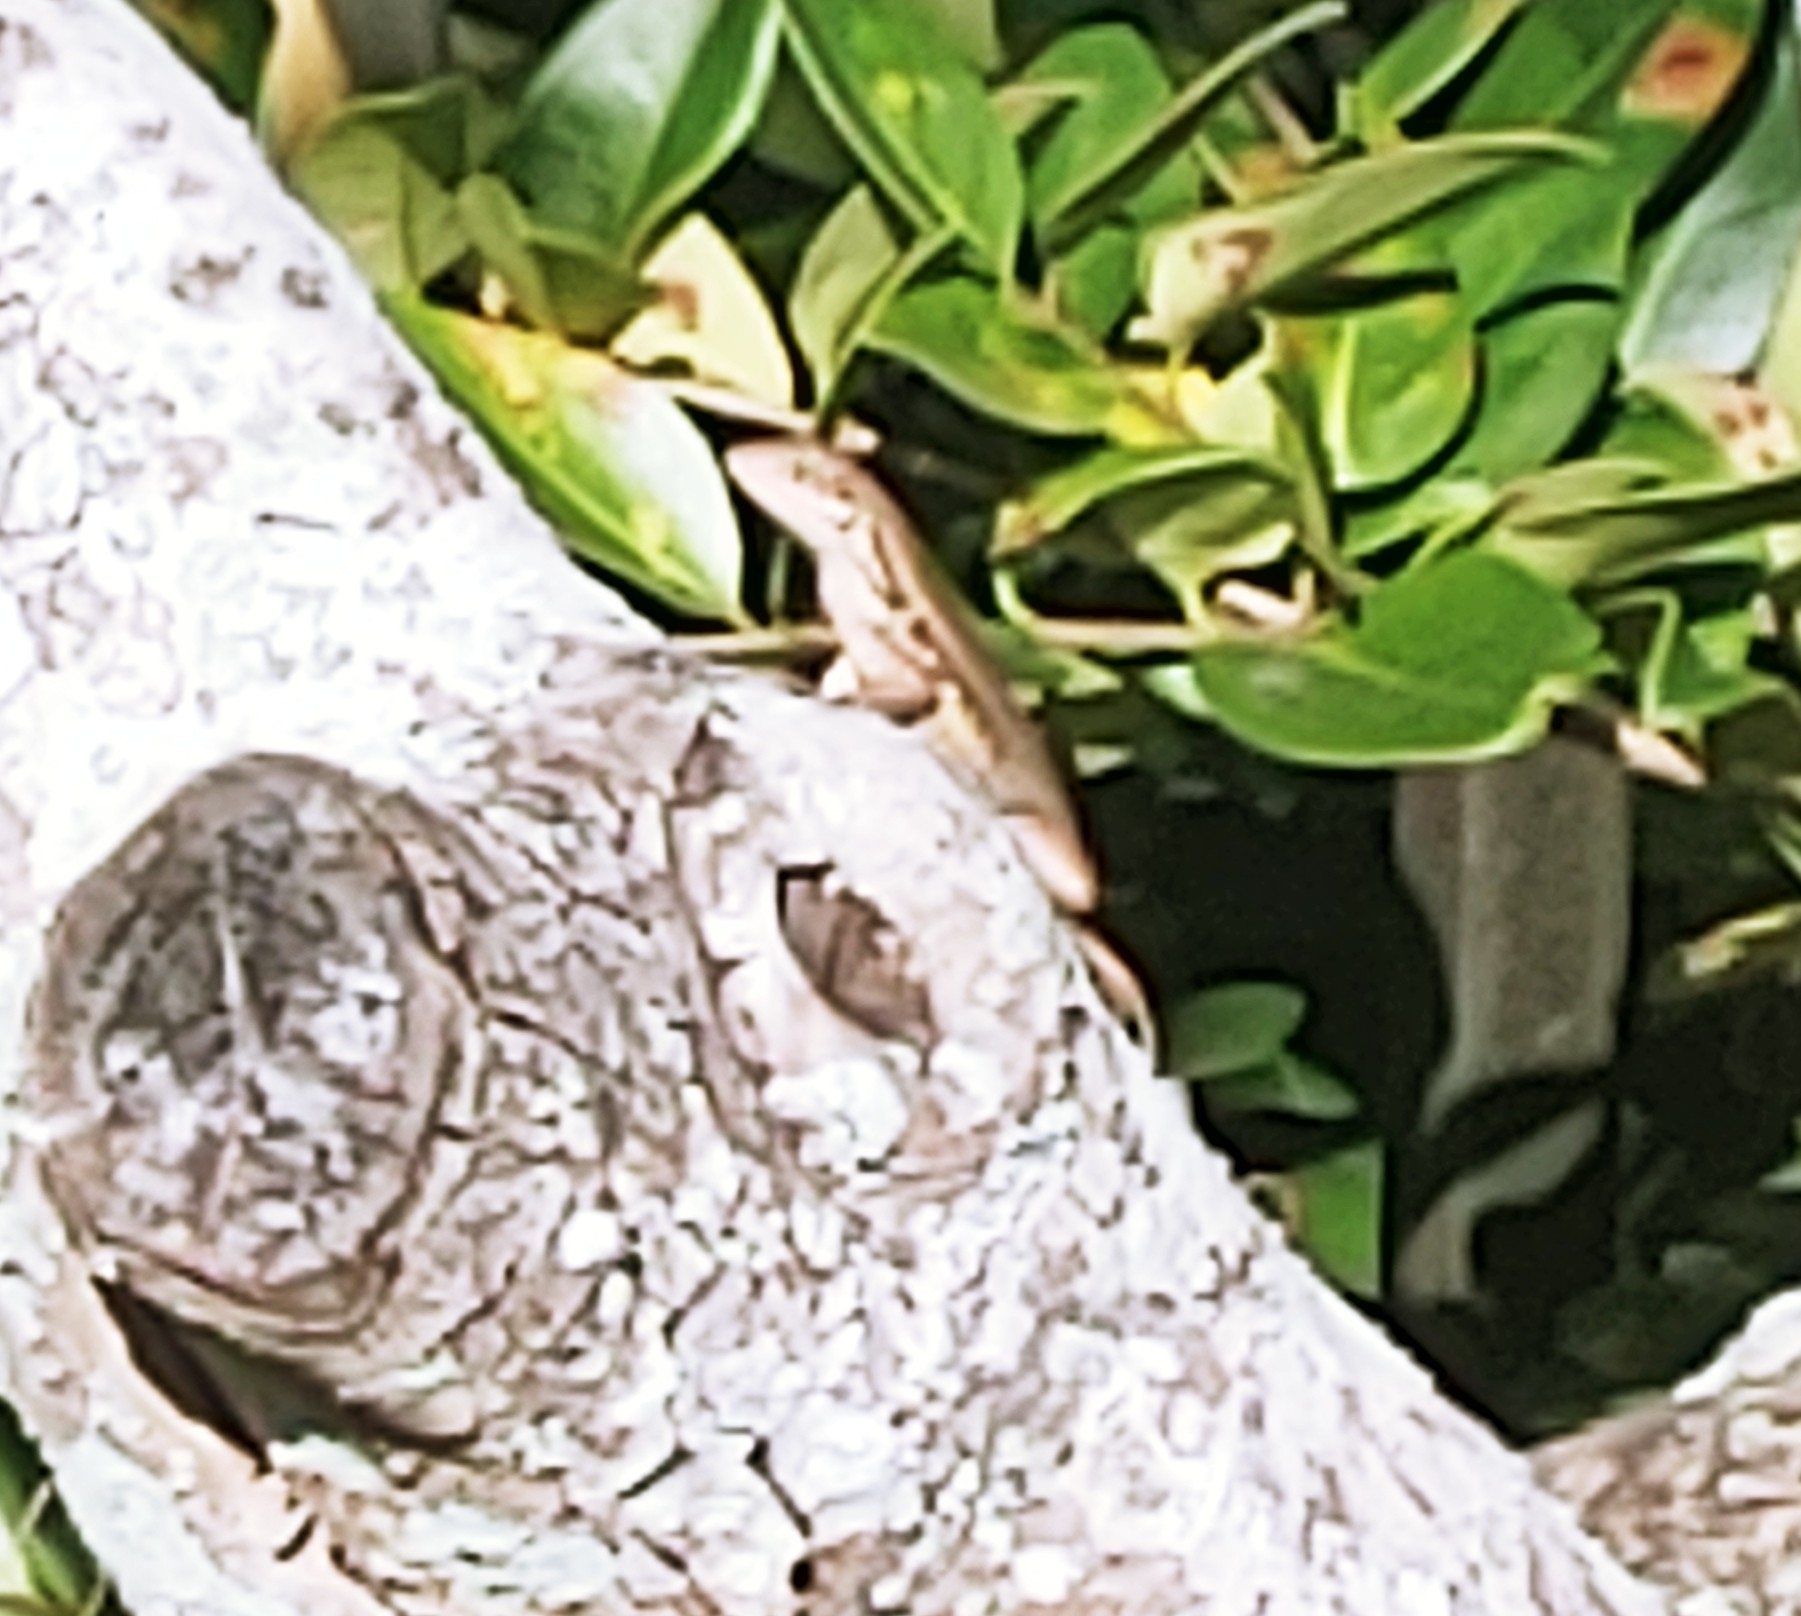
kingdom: Animalia
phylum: Chordata
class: Squamata
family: Leiocephalidae
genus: Leiocephalus
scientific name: Leiocephalus carinatus
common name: Northern curly-tailed lizard
